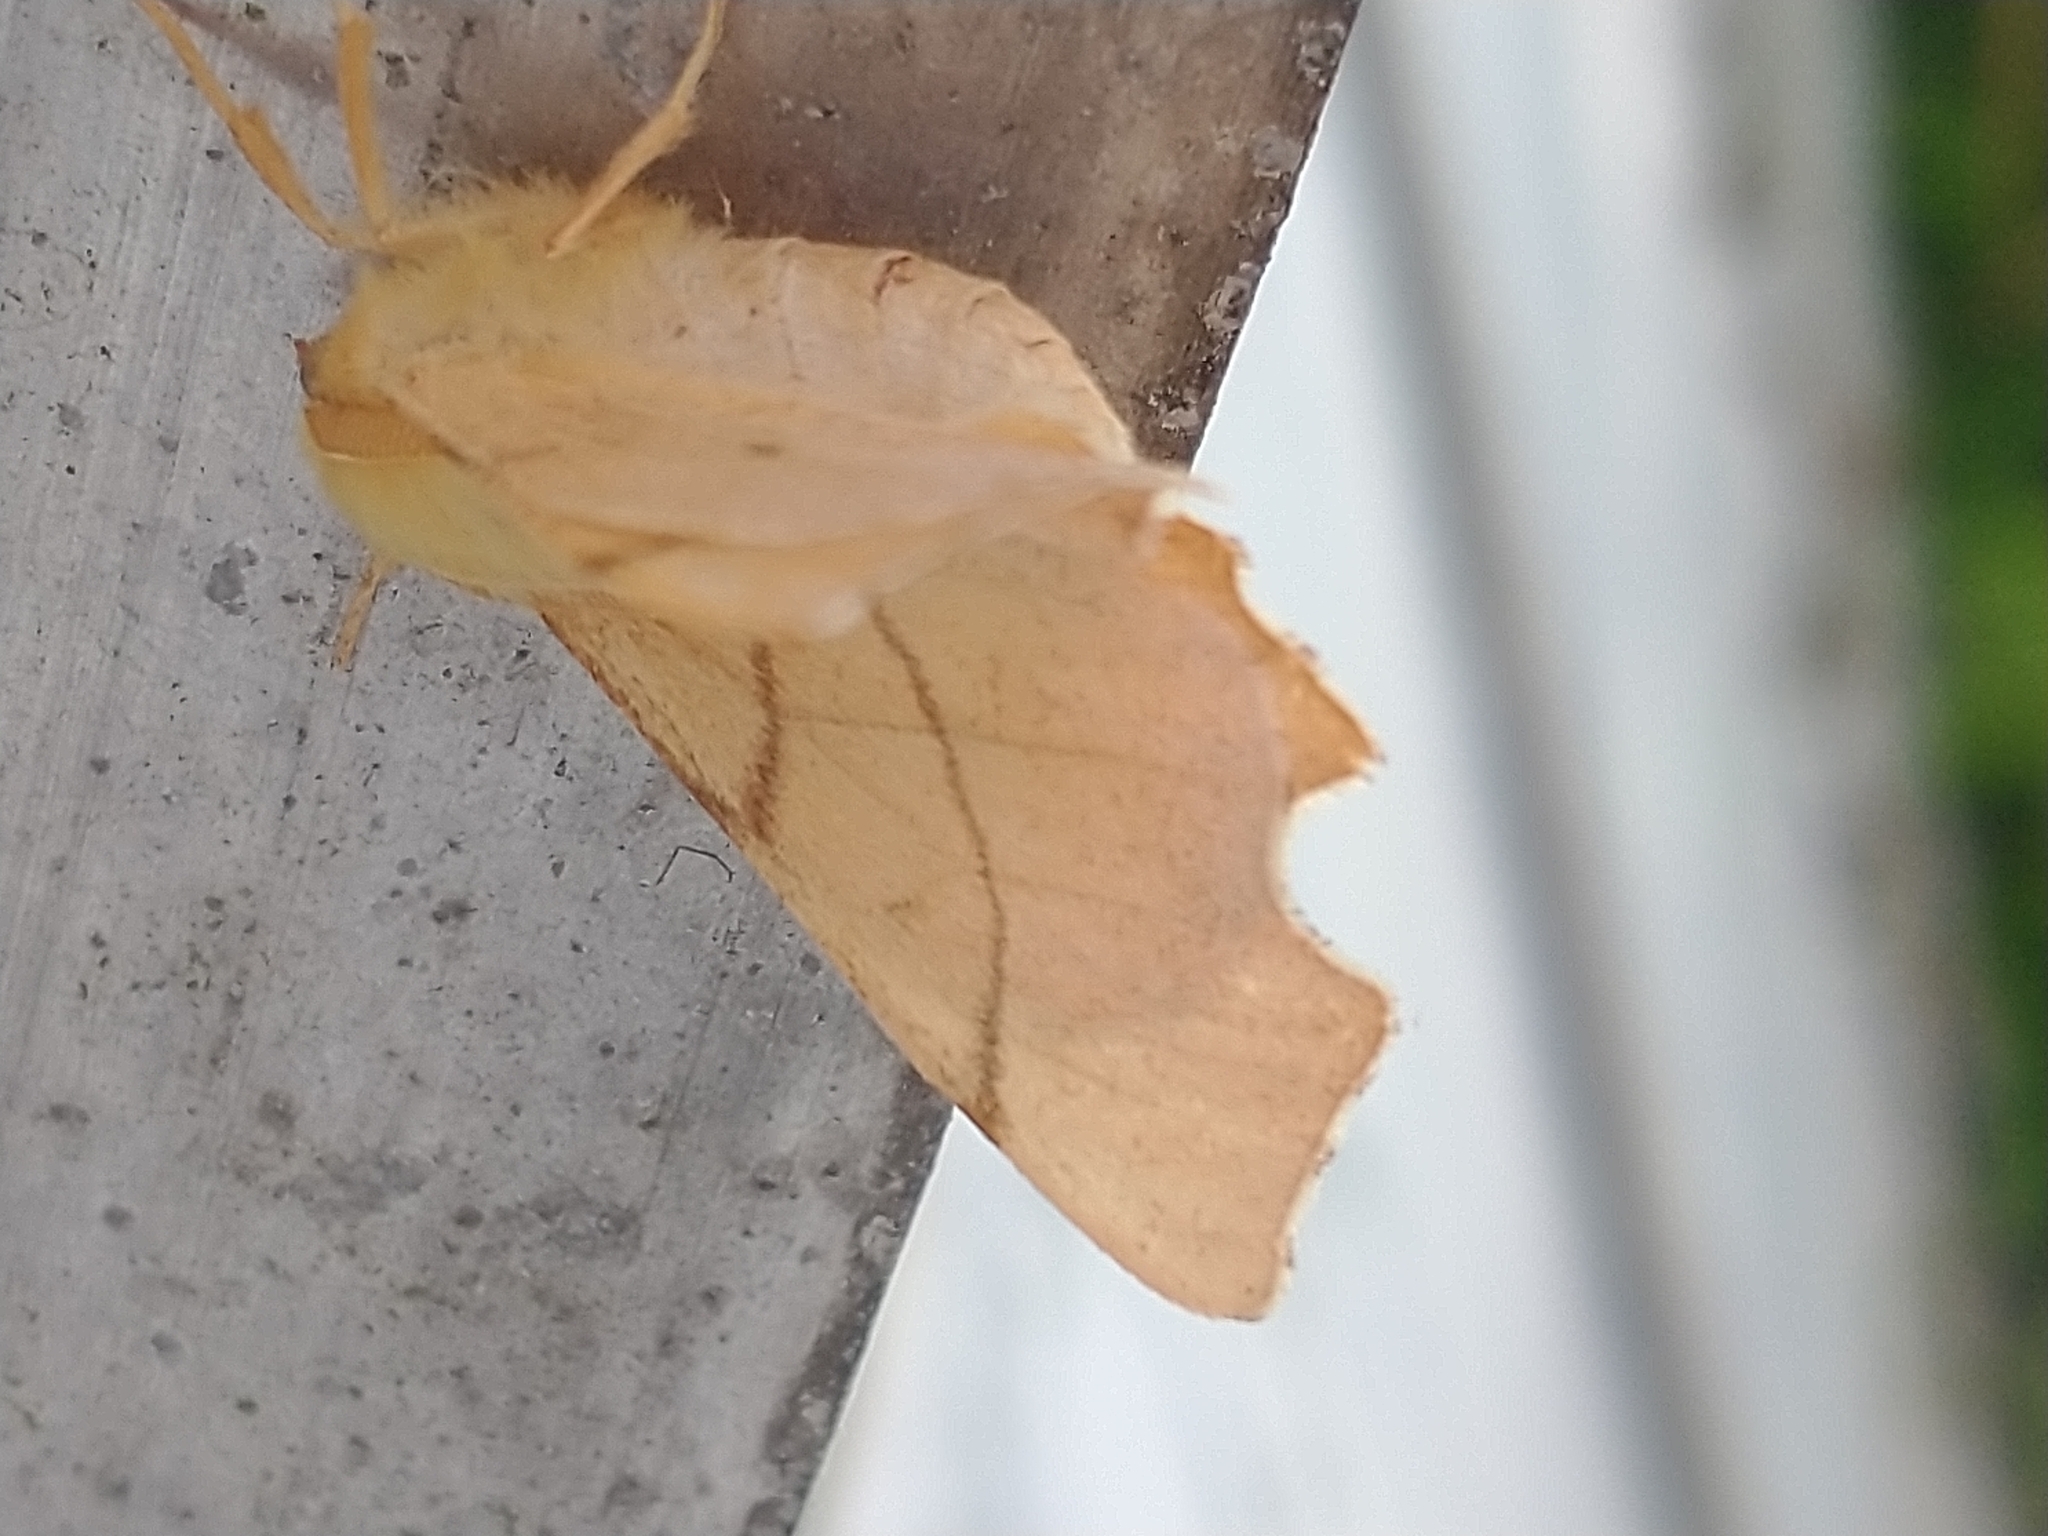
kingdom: Animalia
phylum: Arthropoda
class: Insecta
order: Lepidoptera
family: Geometridae
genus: Ennomos
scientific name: Ennomos erosaria
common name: September thorn
